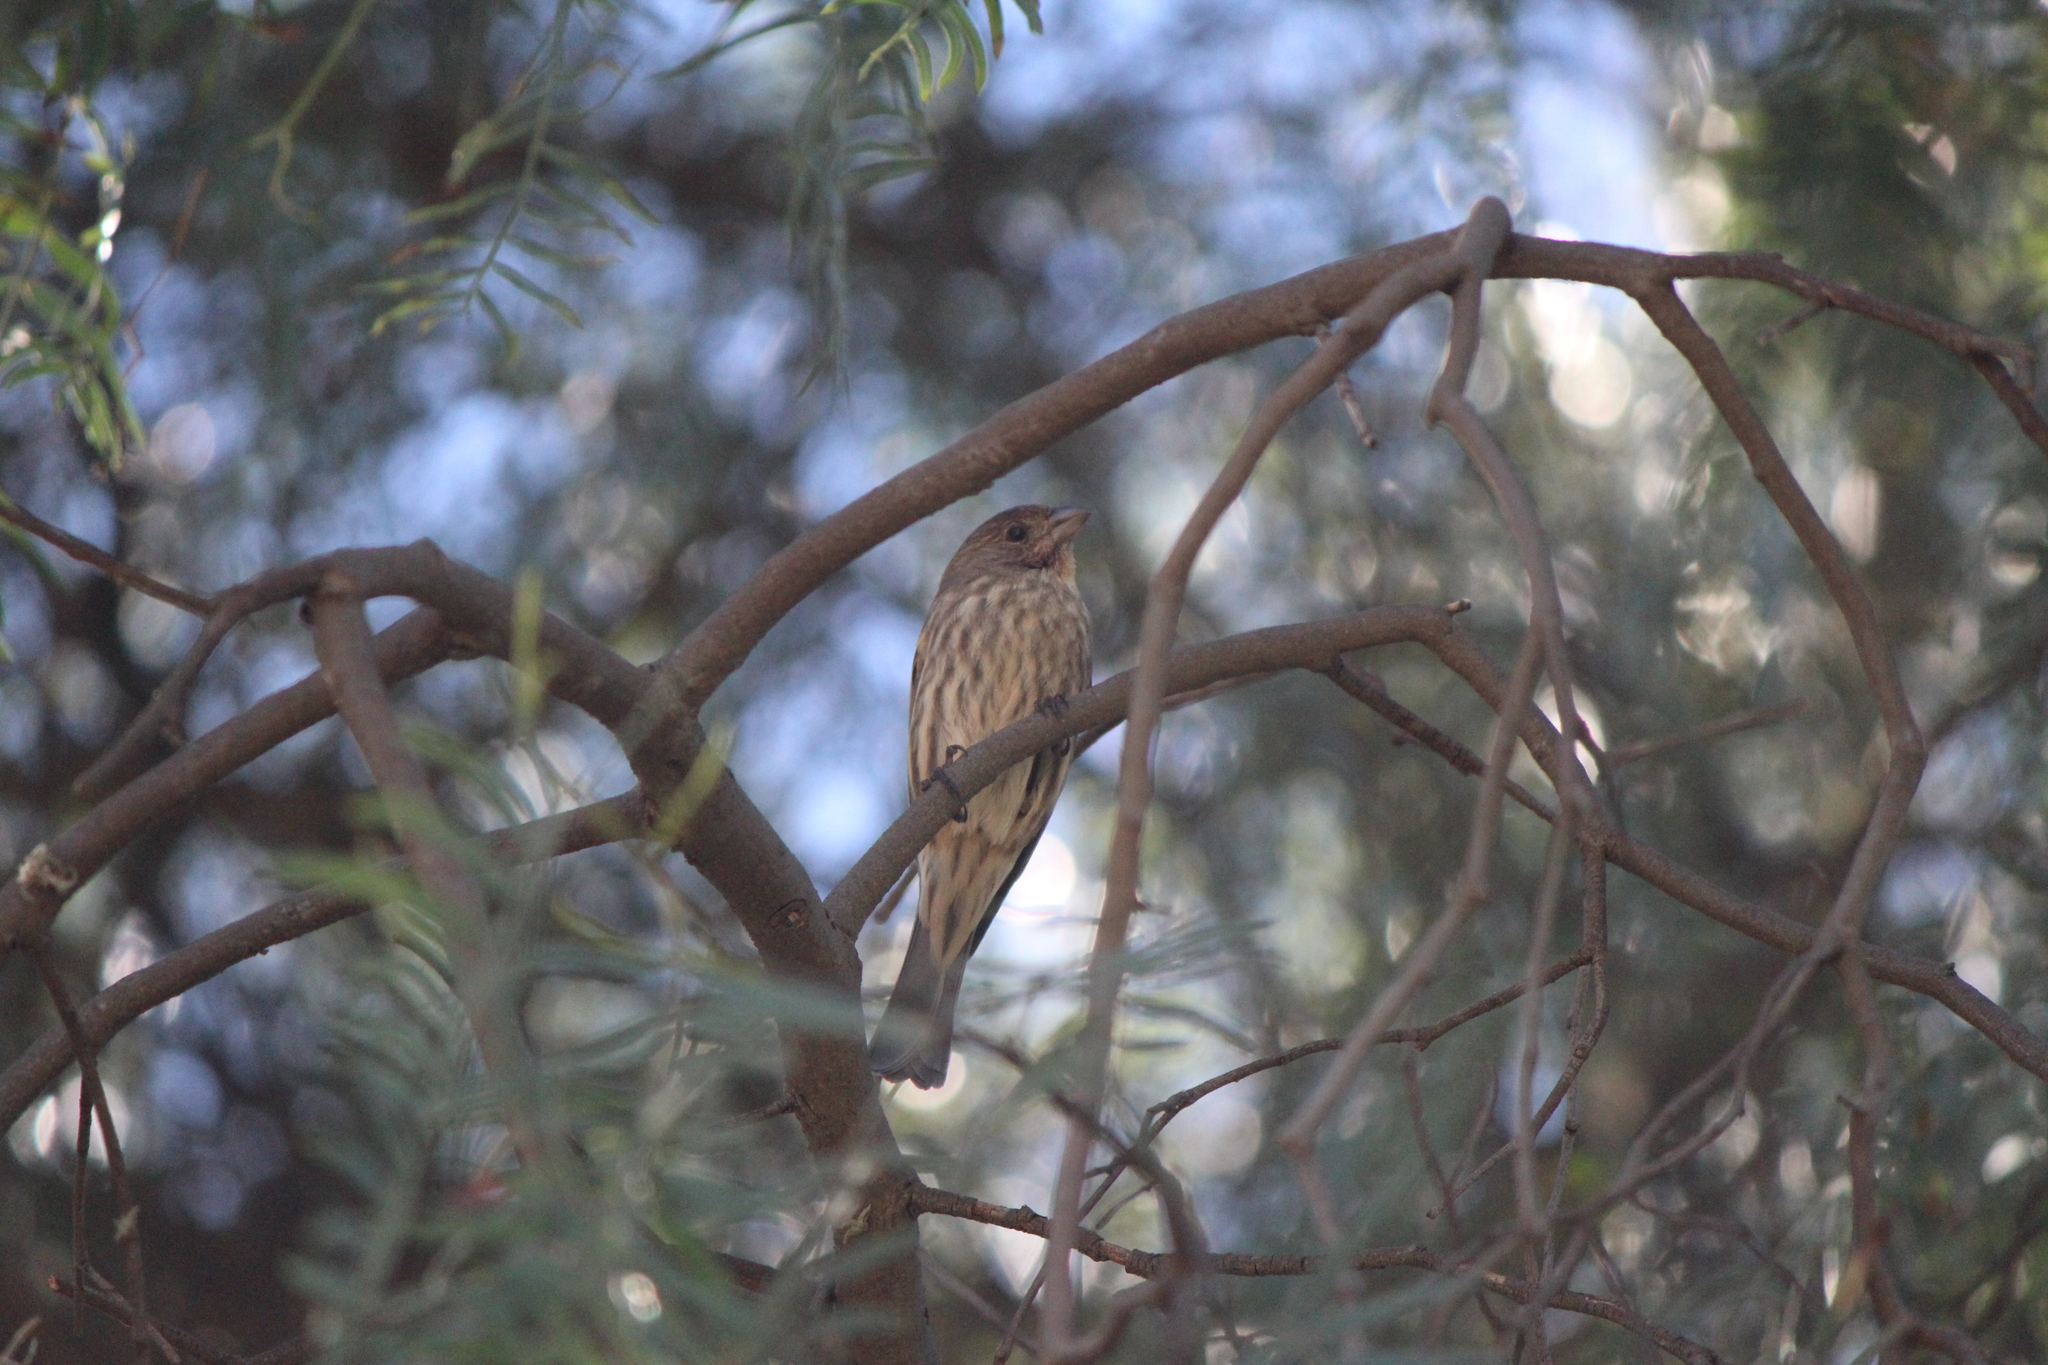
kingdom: Animalia
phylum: Chordata
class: Aves
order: Passeriformes
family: Fringillidae
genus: Haemorhous
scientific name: Haemorhous mexicanus
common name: House finch
